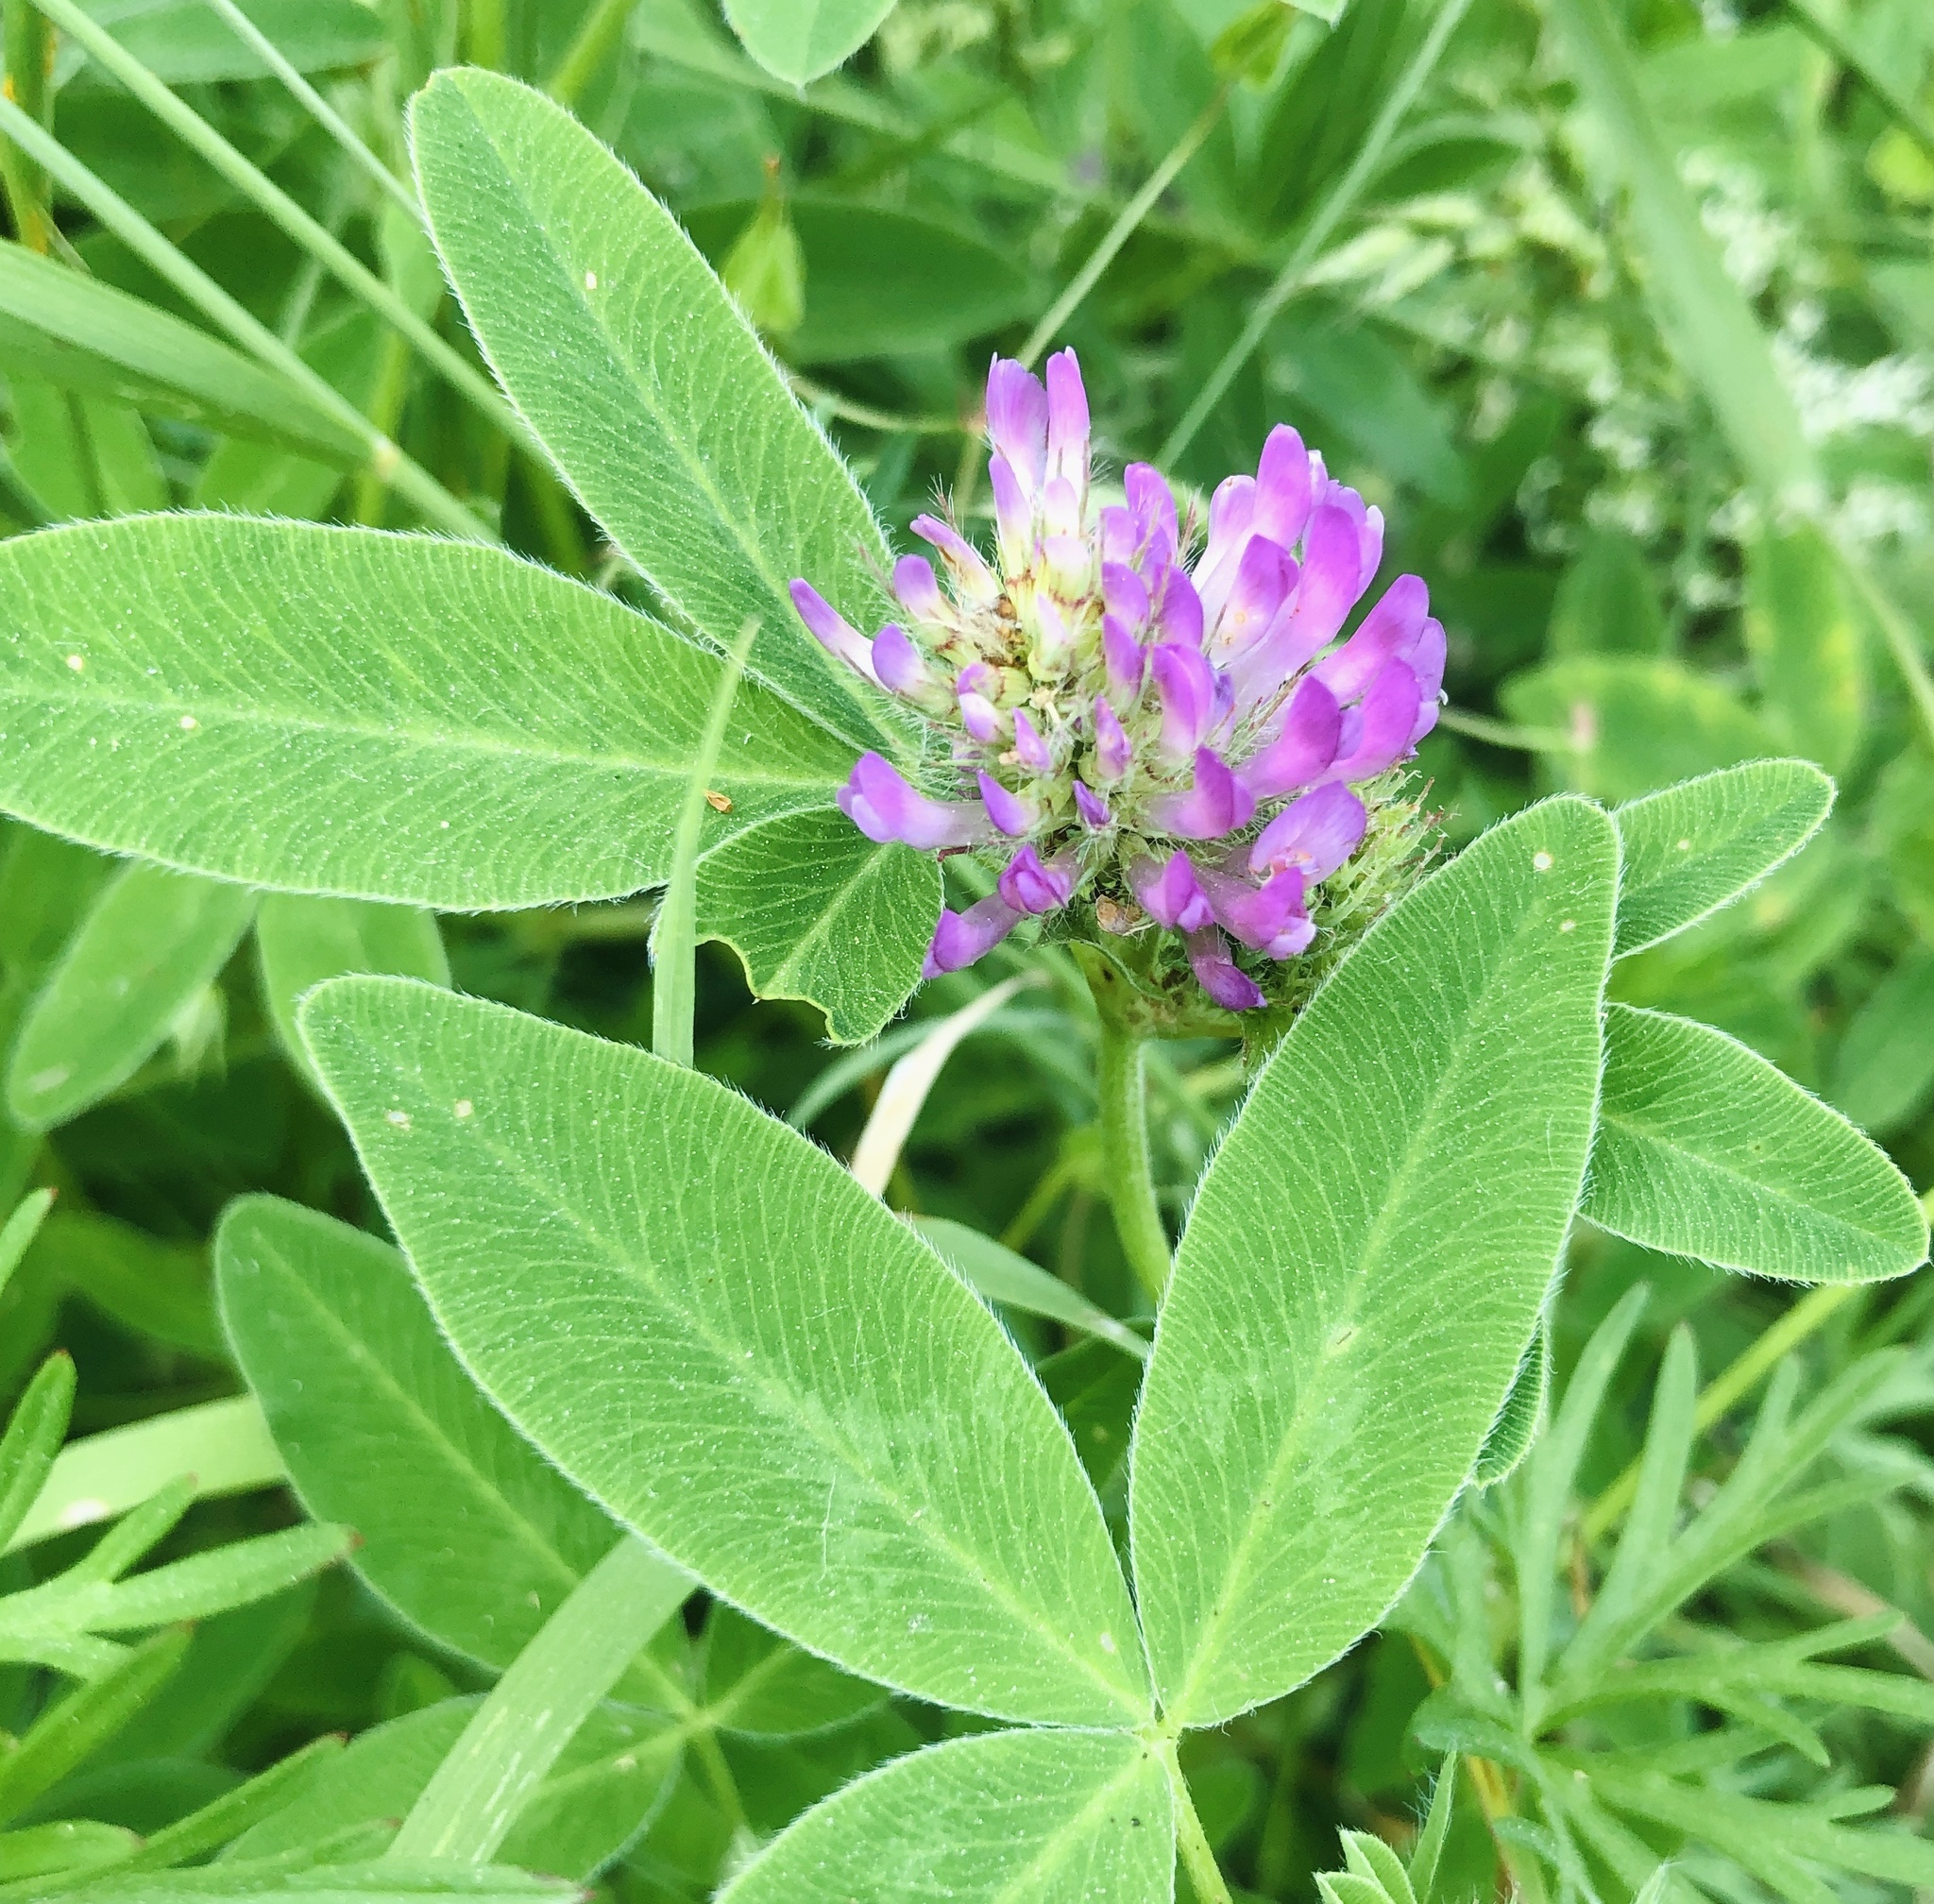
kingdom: Plantae
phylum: Tracheophyta
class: Magnoliopsida
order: Fabales
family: Fabaceae
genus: Trifolium
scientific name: Trifolium medium
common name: Zigzag clover
